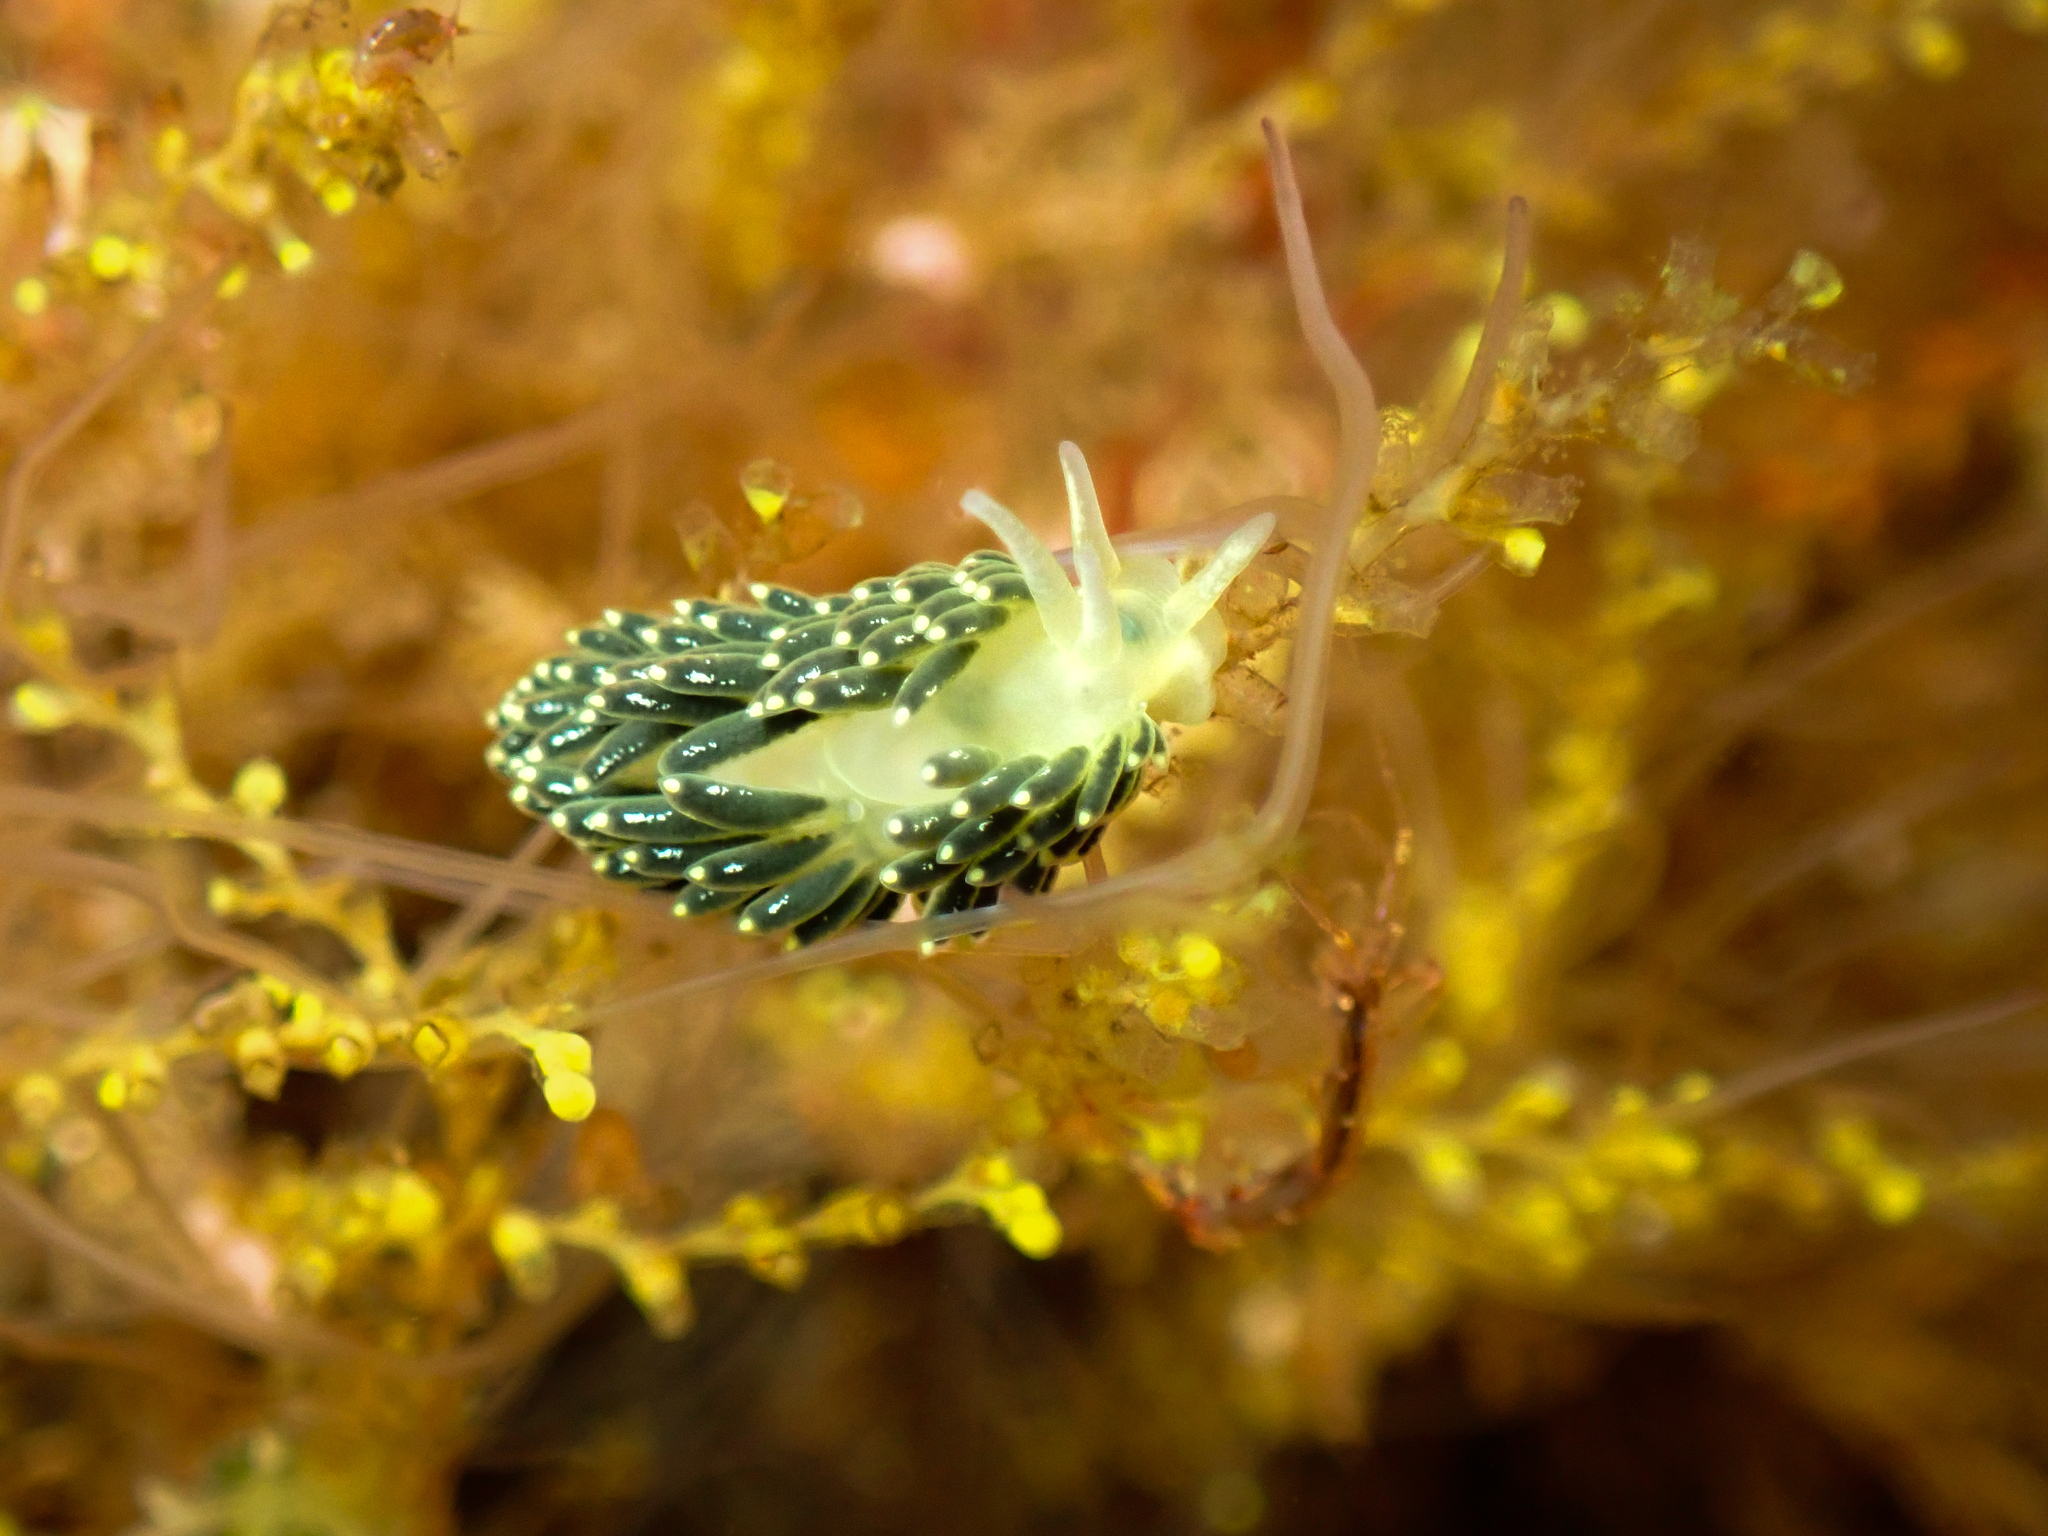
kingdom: Animalia
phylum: Mollusca
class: Gastropoda
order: Nudibranchia
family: Trinchesiidae
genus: Diaphoreolis
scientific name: Diaphoreolis viridis
